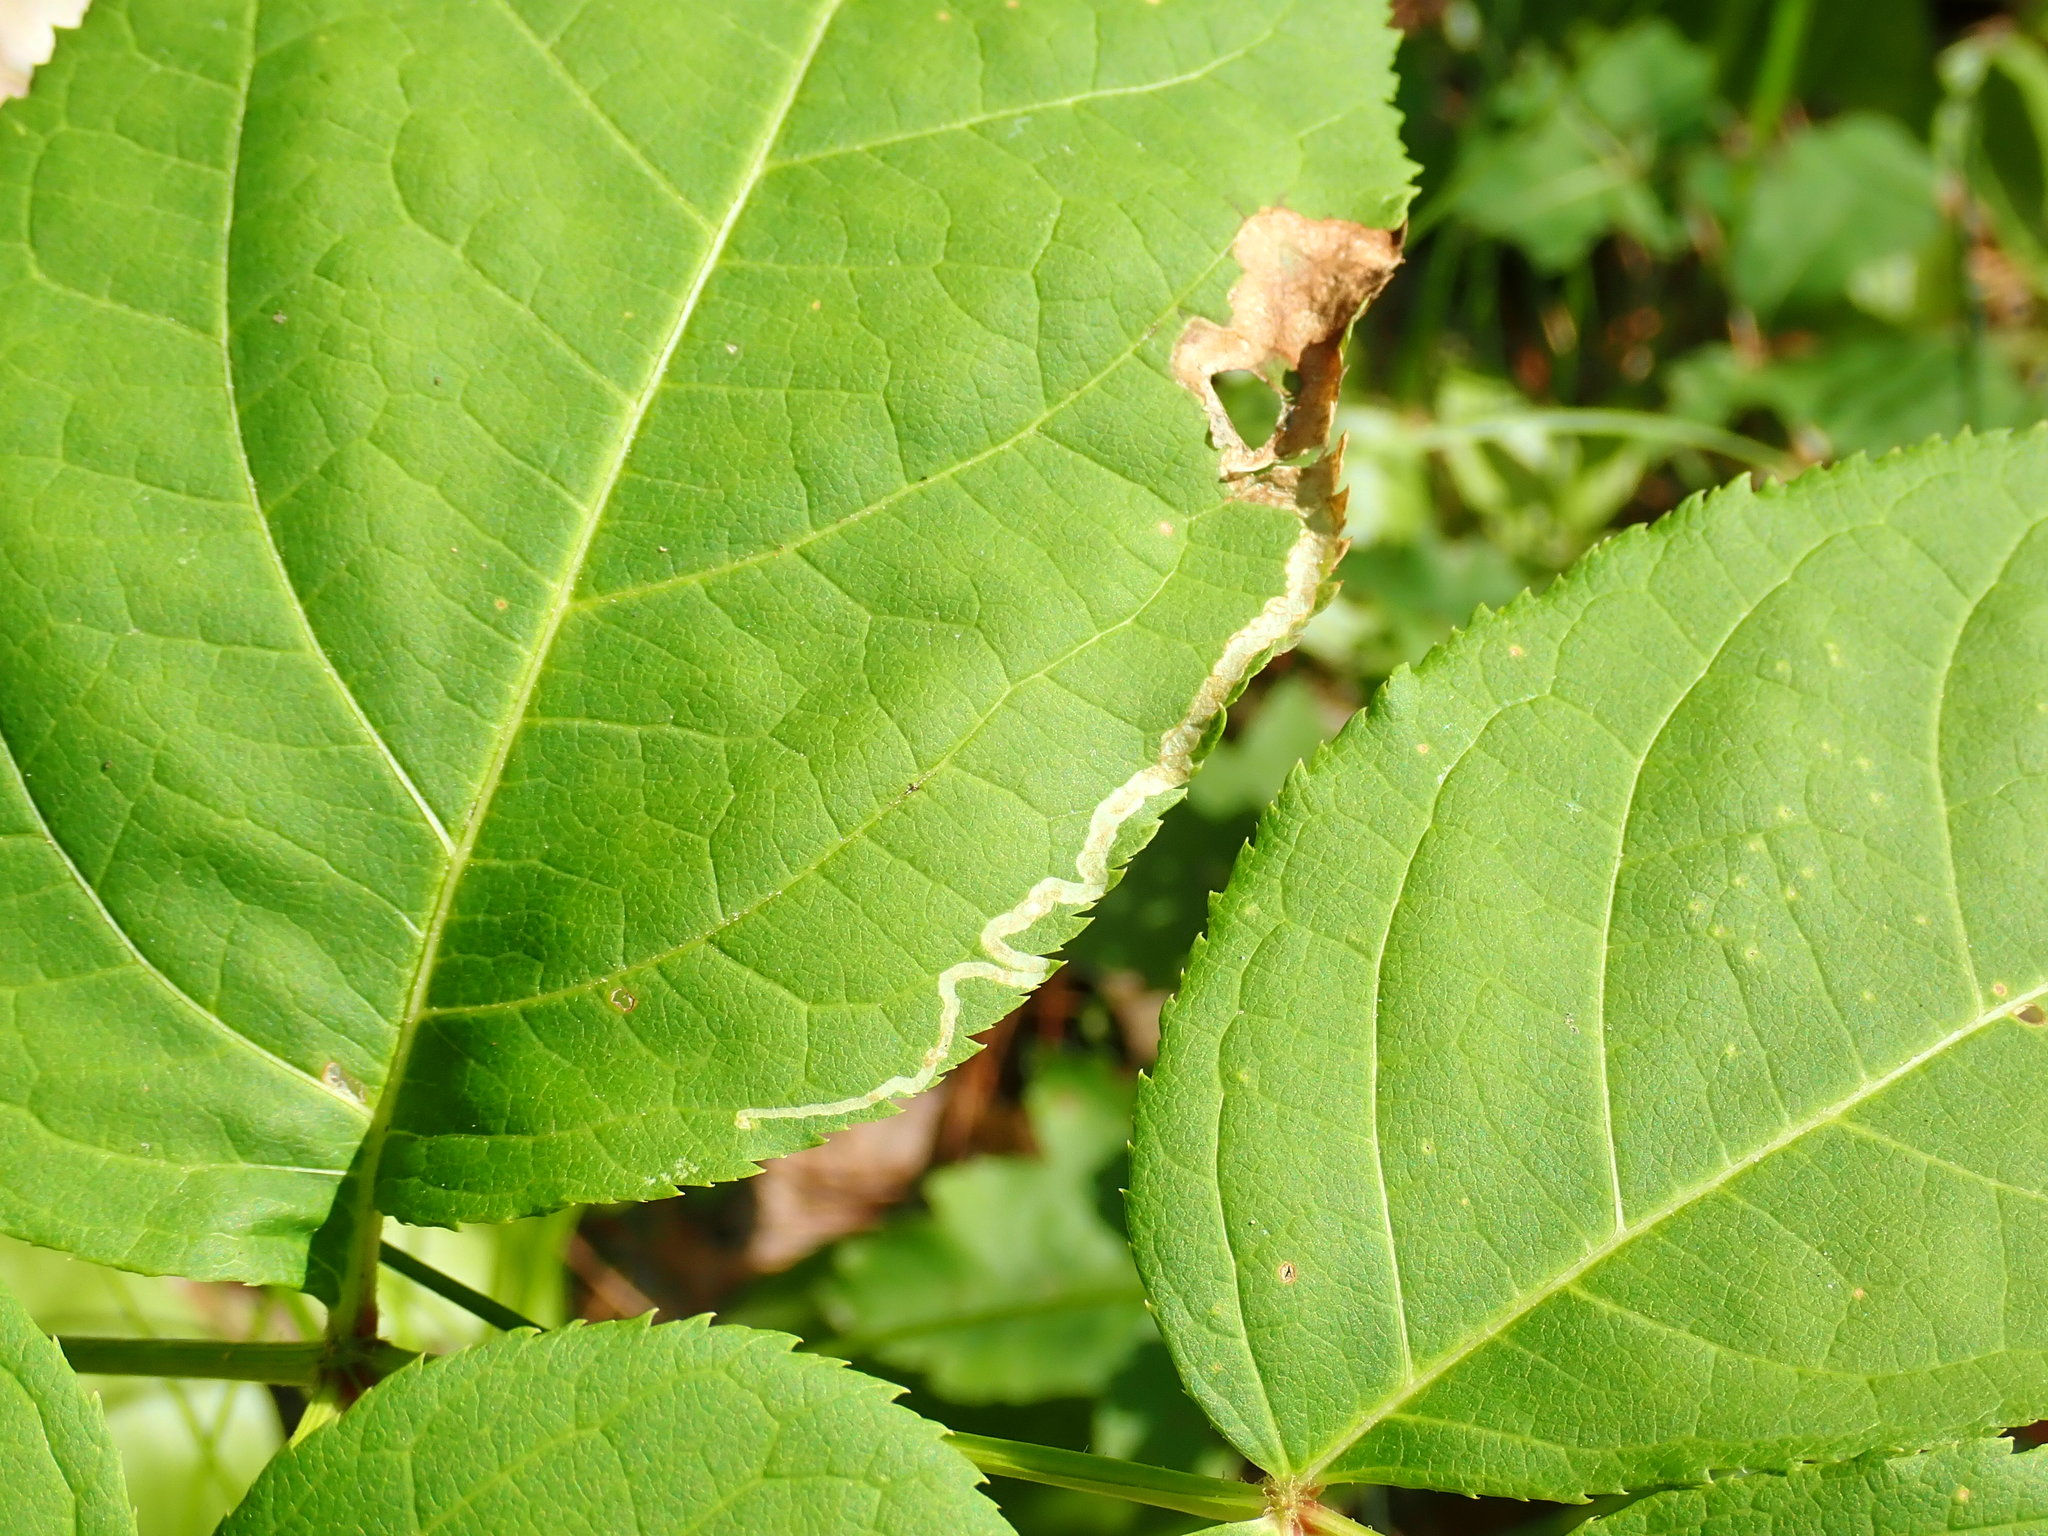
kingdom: Animalia
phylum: Arthropoda
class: Insecta
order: Diptera
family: Agromyzidae
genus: Phytomyza
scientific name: Phytomyza aralivora
